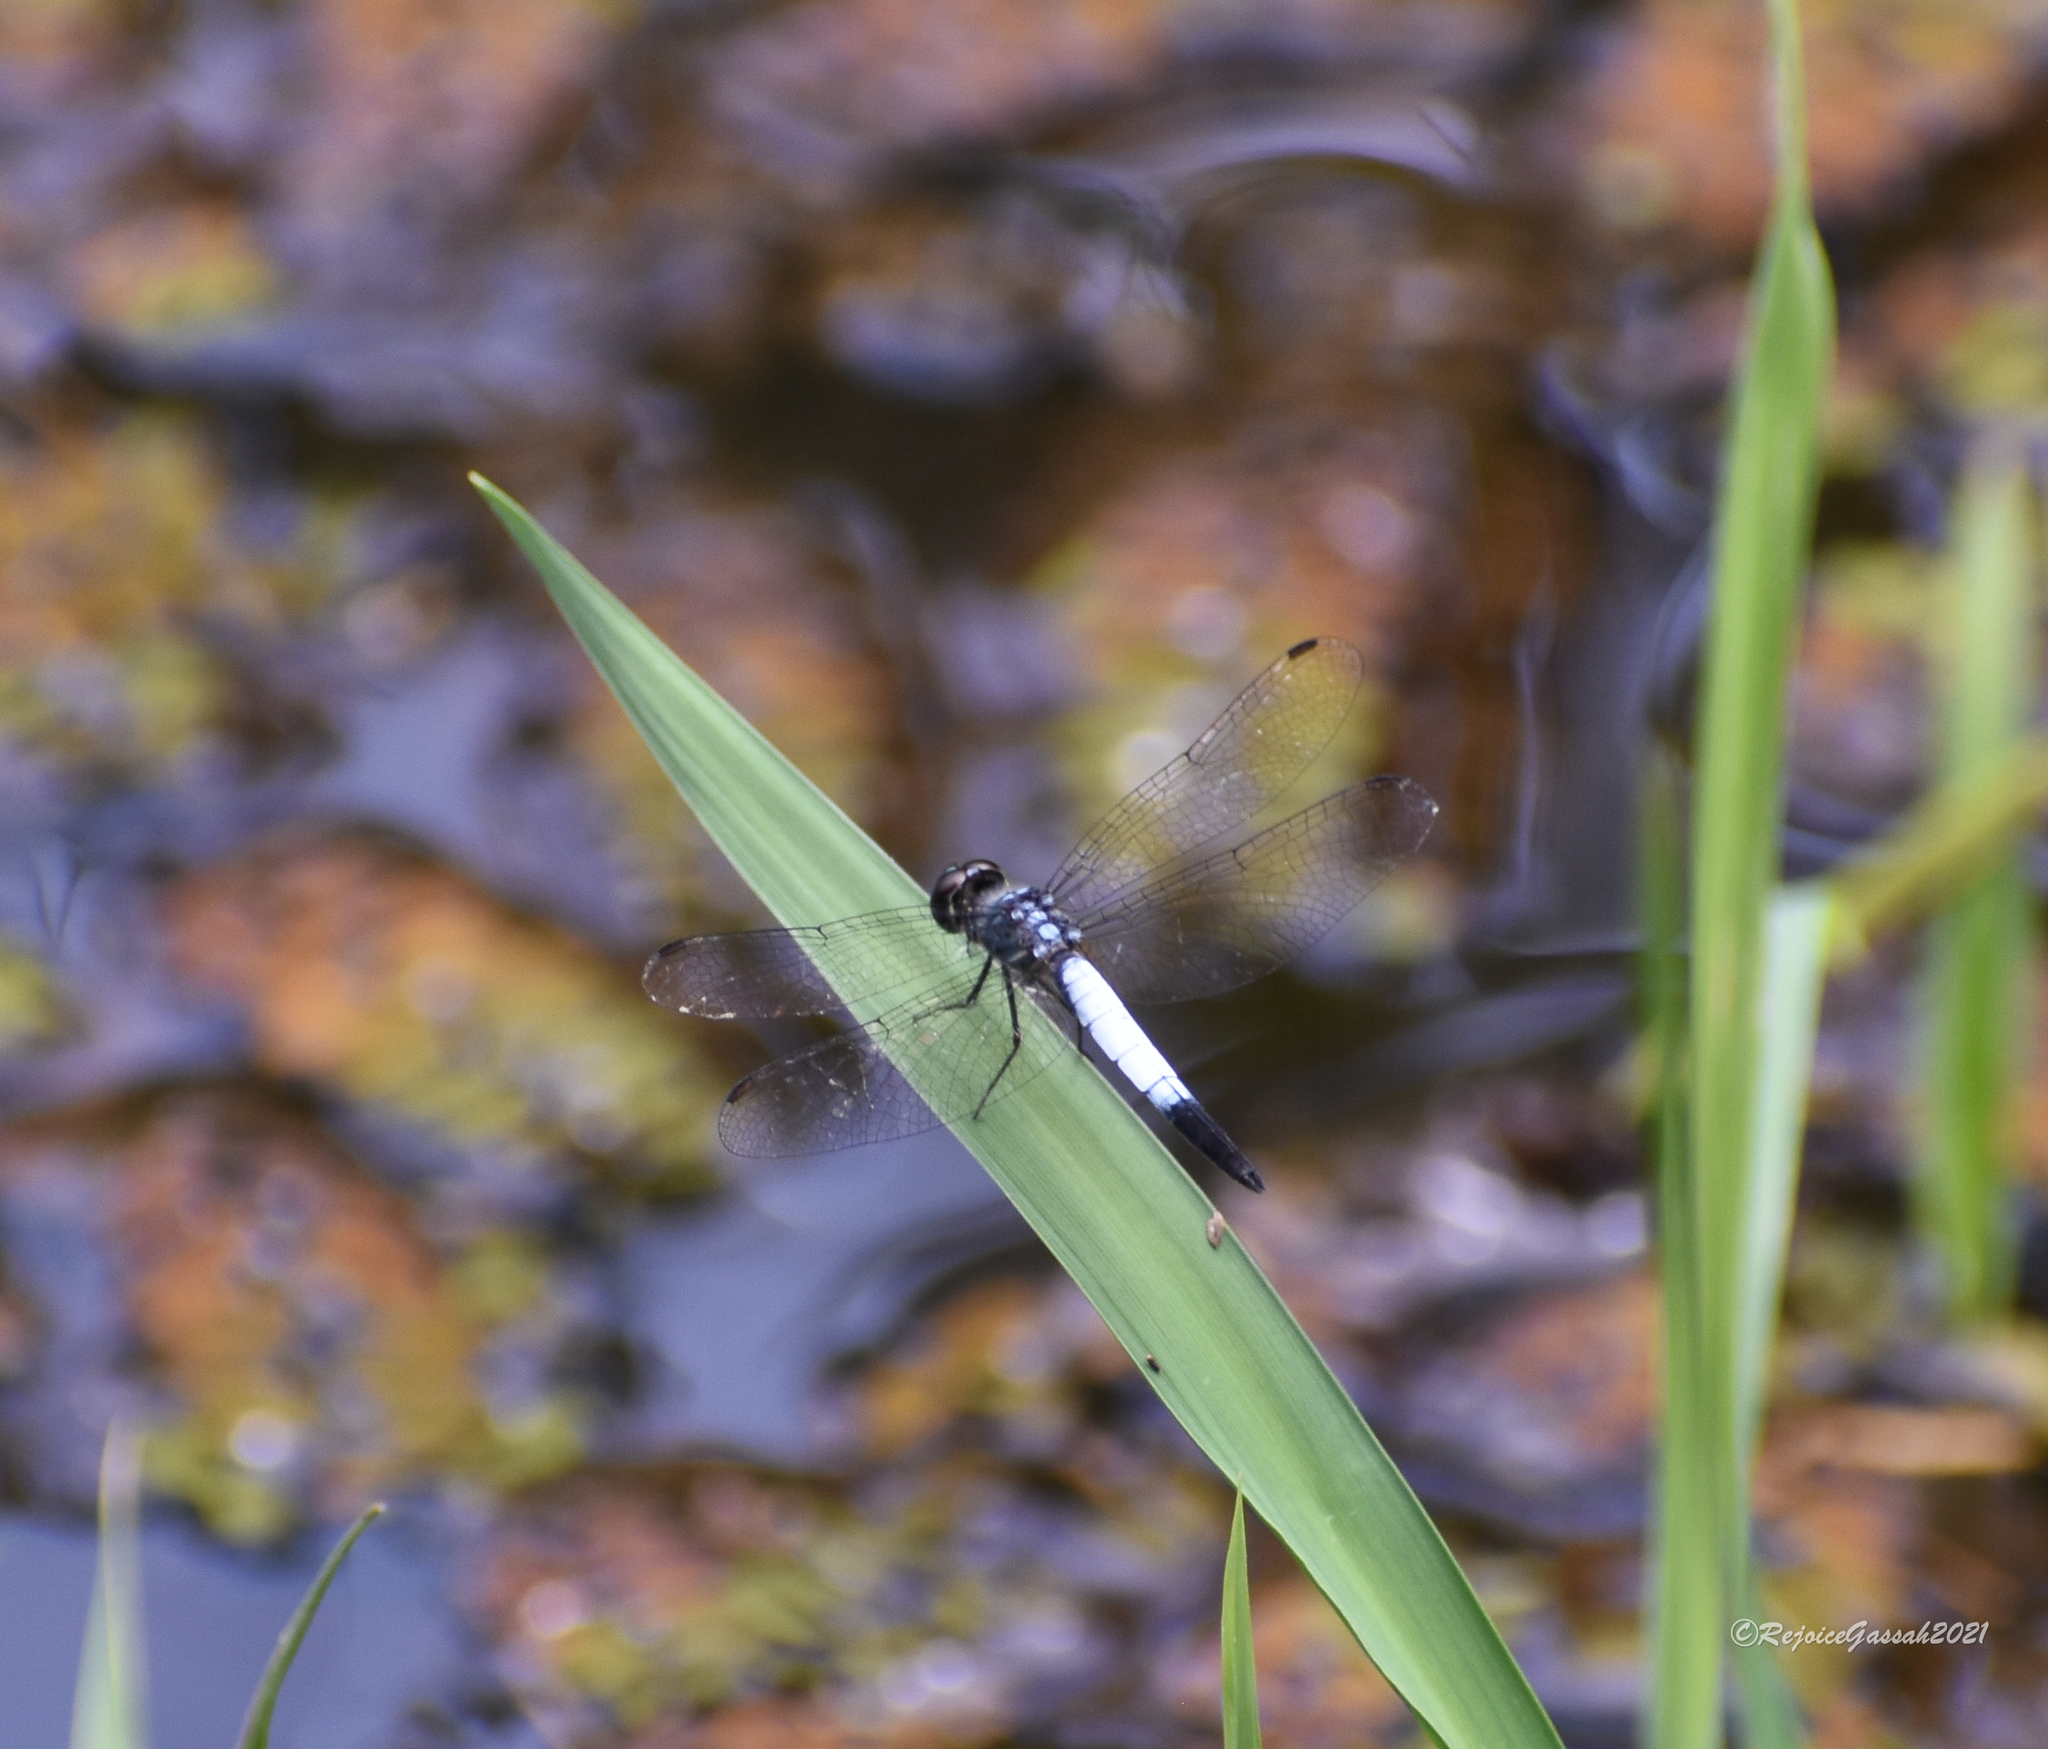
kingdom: Animalia
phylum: Arthropoda
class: Insecta
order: Odonata
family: Libellulidae
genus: Brachydiplax
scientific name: Brachydiplax farinosa
